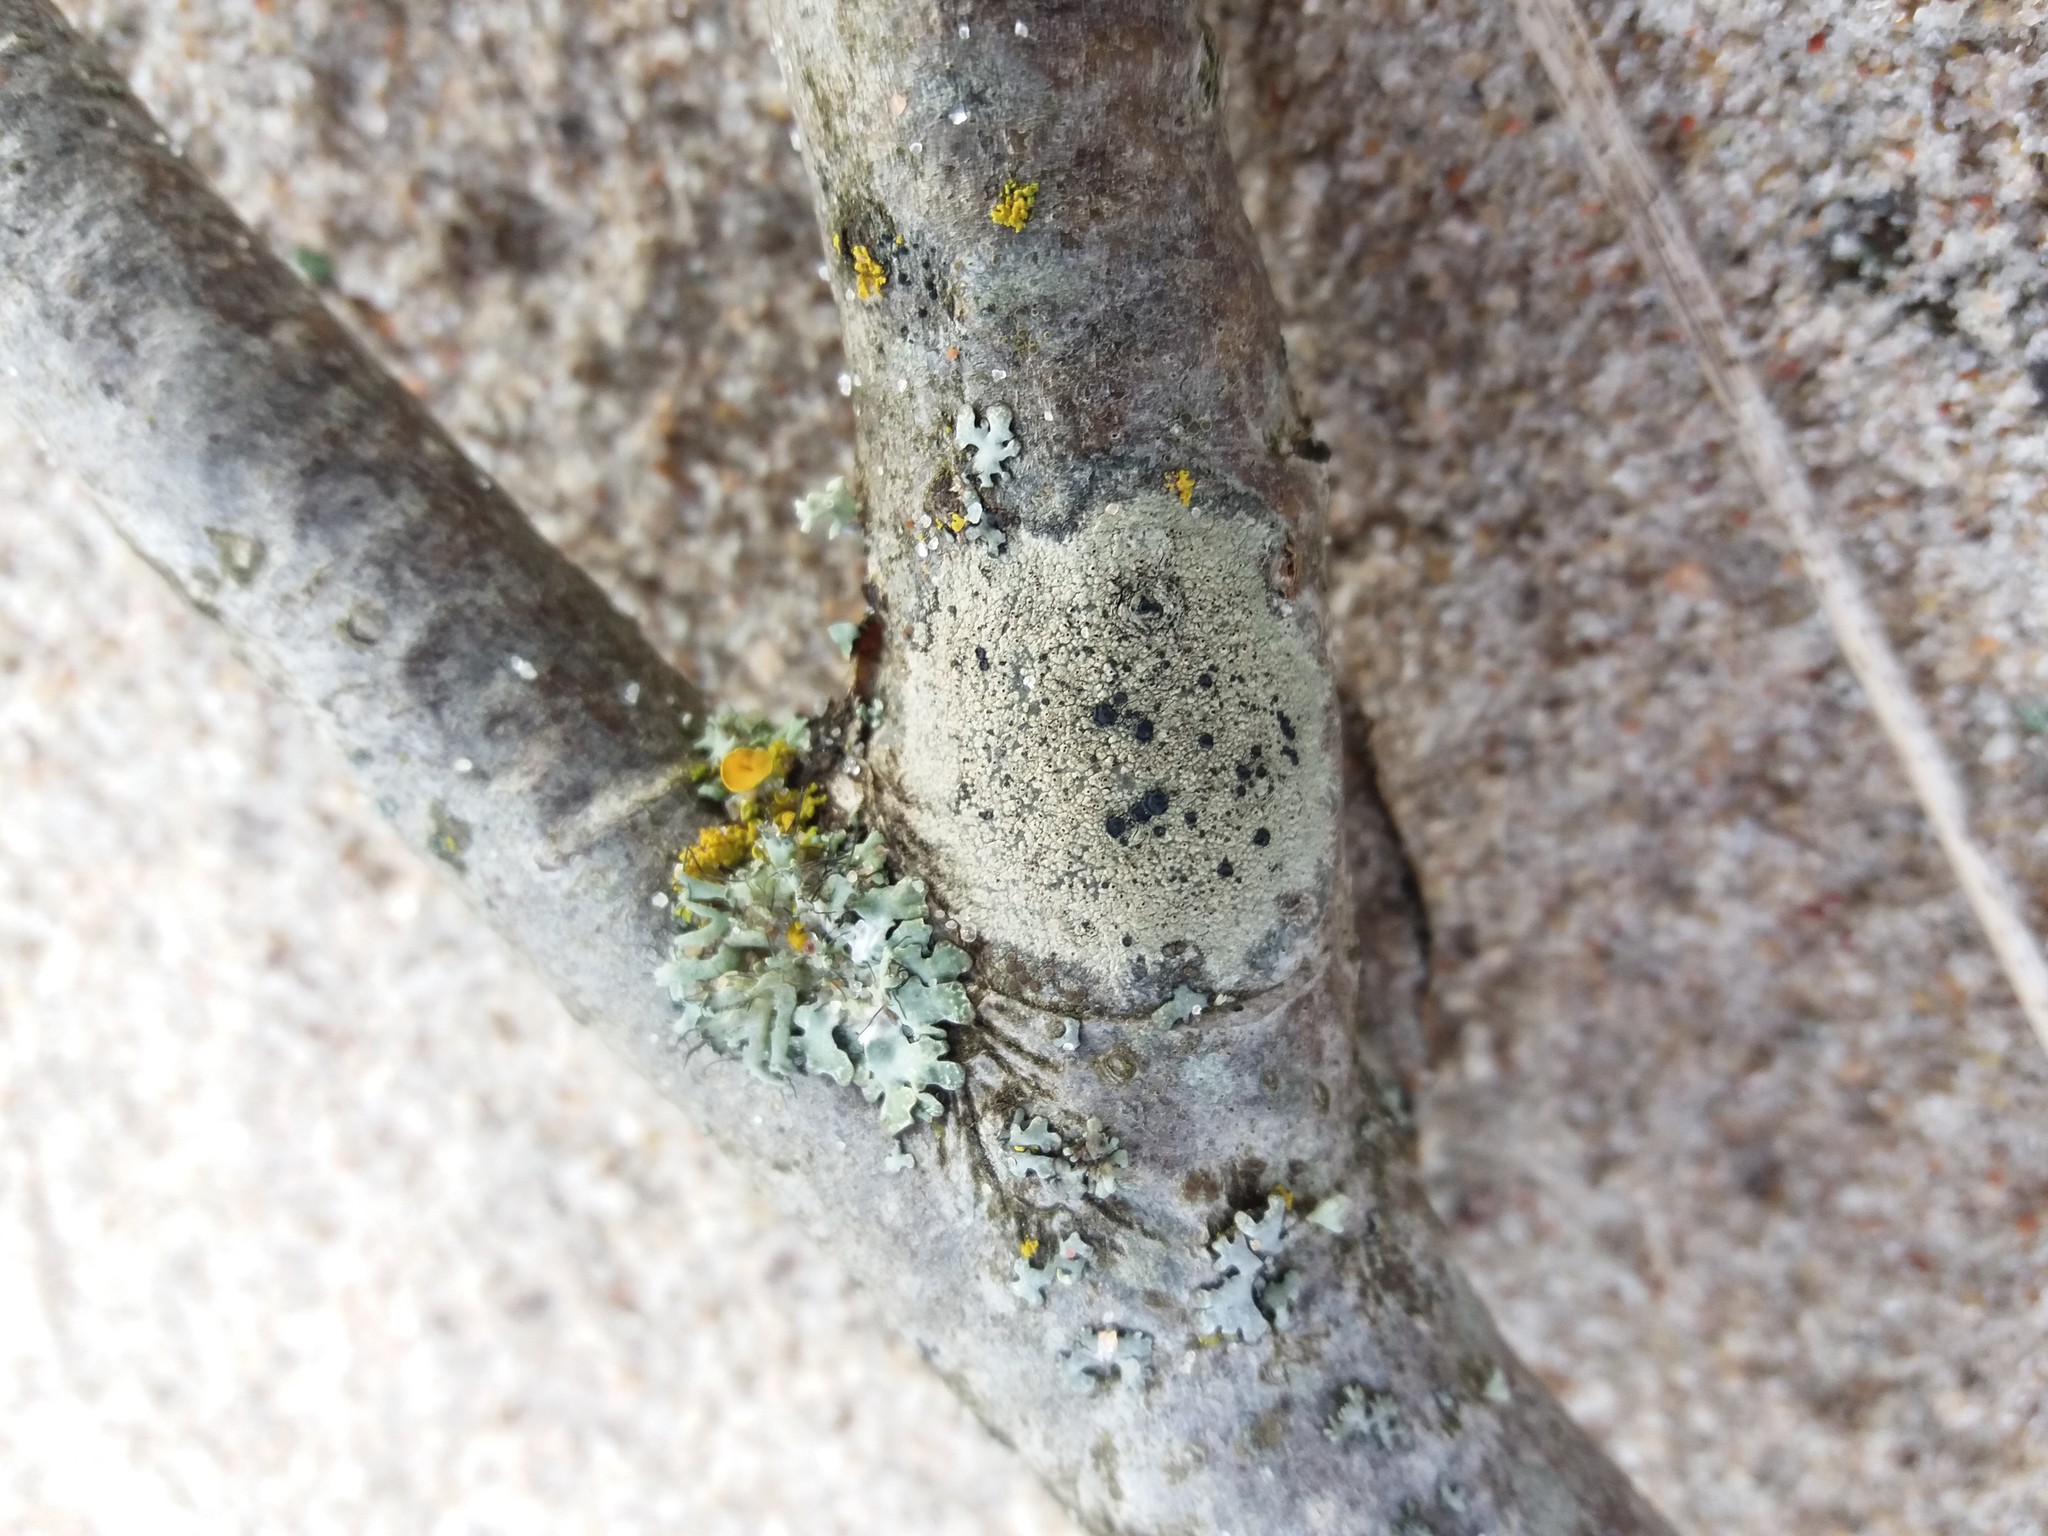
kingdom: Fungi
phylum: Ascomycota
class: Lecanoromycetes
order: Lecanorales
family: Lecanoraceae
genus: Lecidella
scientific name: Lecidella elaeochroma
